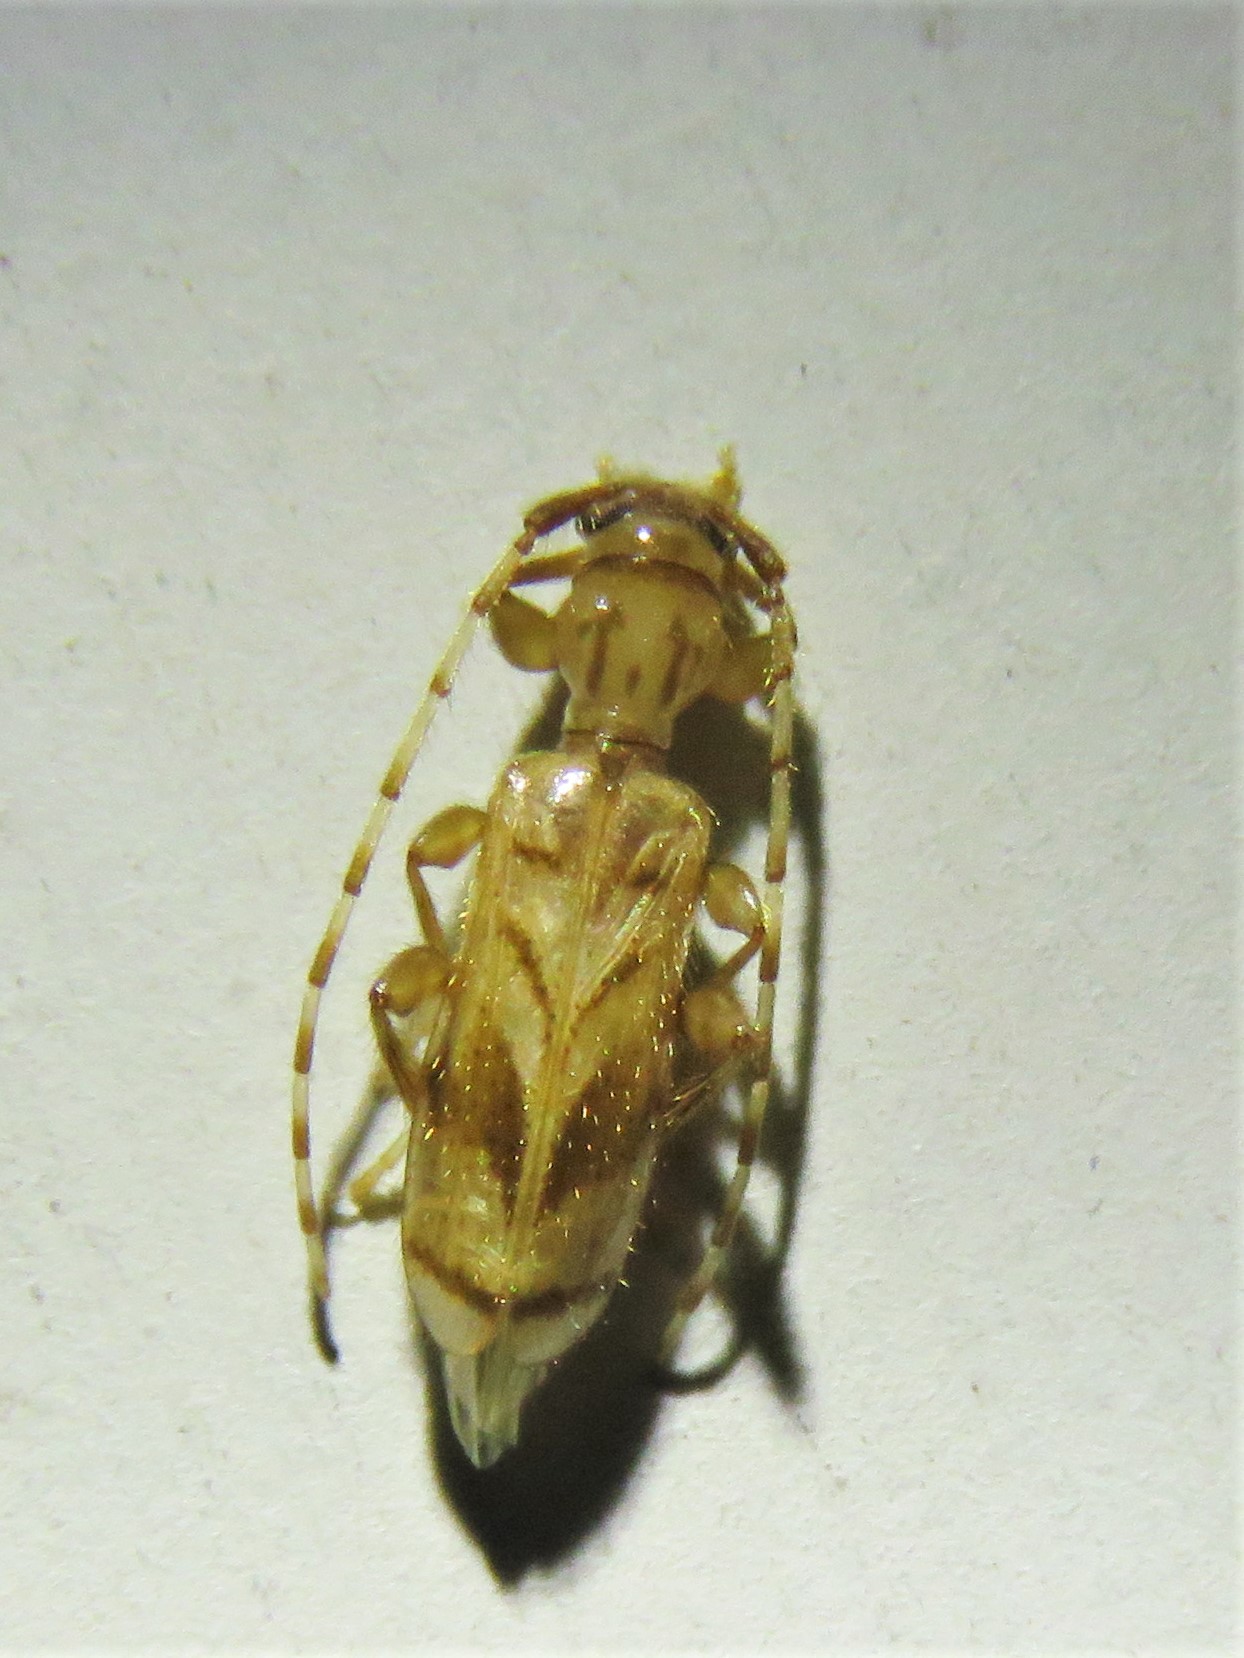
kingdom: Animalia
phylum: Arthropoda
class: Insecta
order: Coleoptera
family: Cerambycidae
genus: Obrium
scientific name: Obrium maculatum
